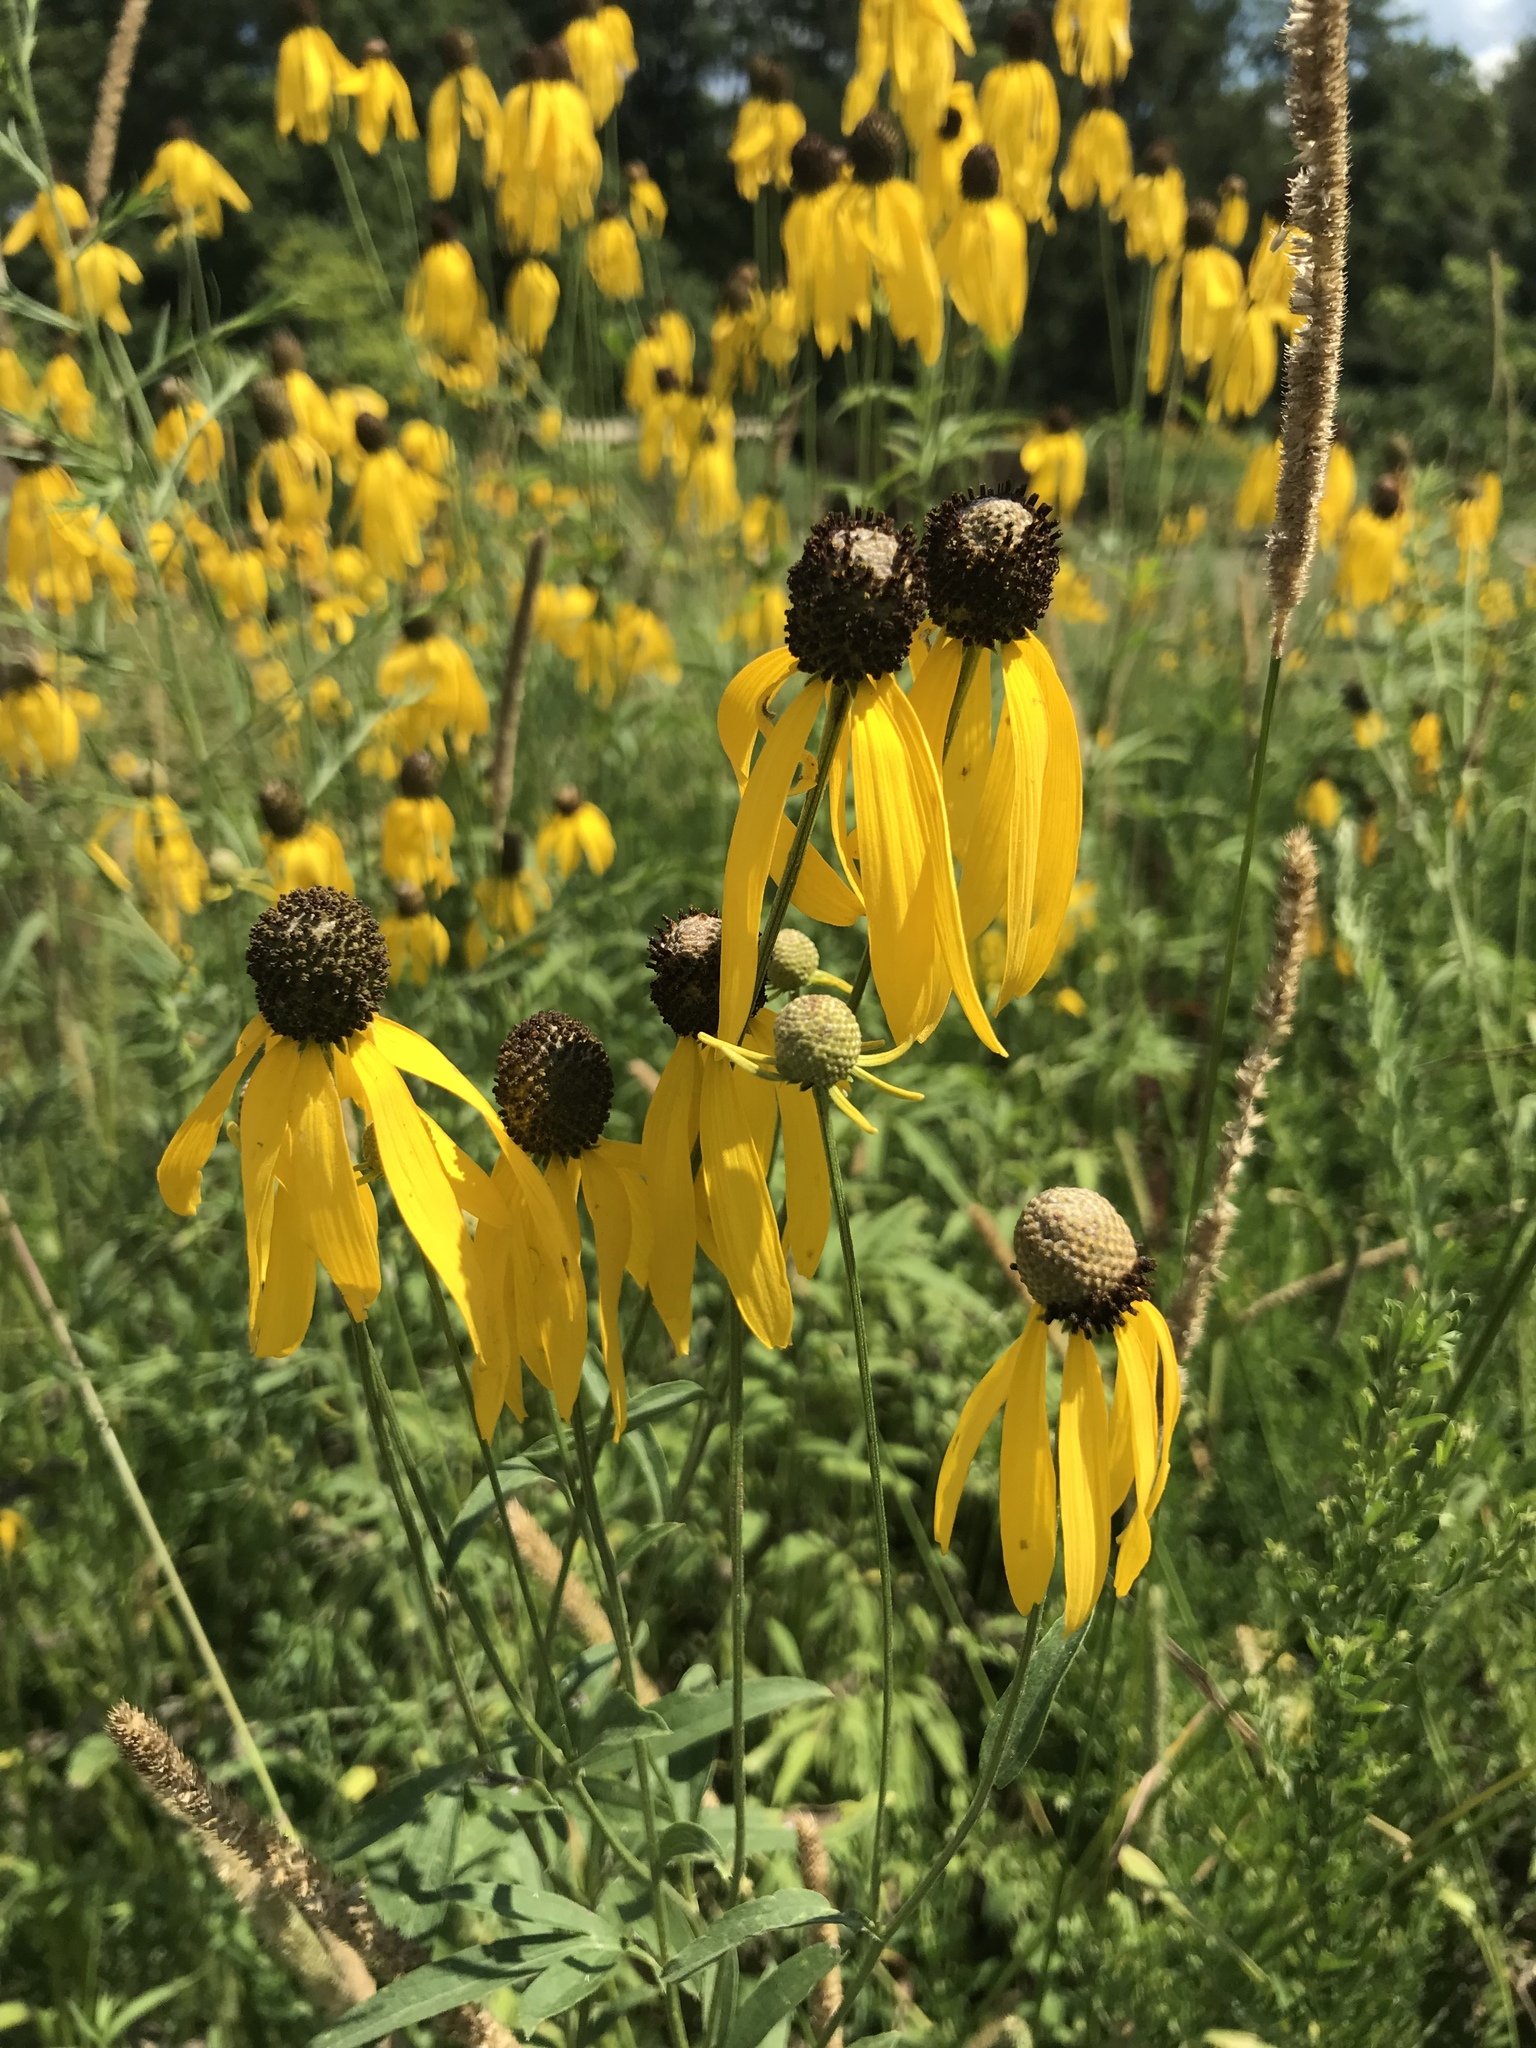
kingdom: Plantae
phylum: Tracheophyta
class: Magnoliopsida
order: Asterales
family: Asteraceae
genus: Ratibida
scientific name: Ratibida pinnata
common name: Drooping prairie-coneflower
